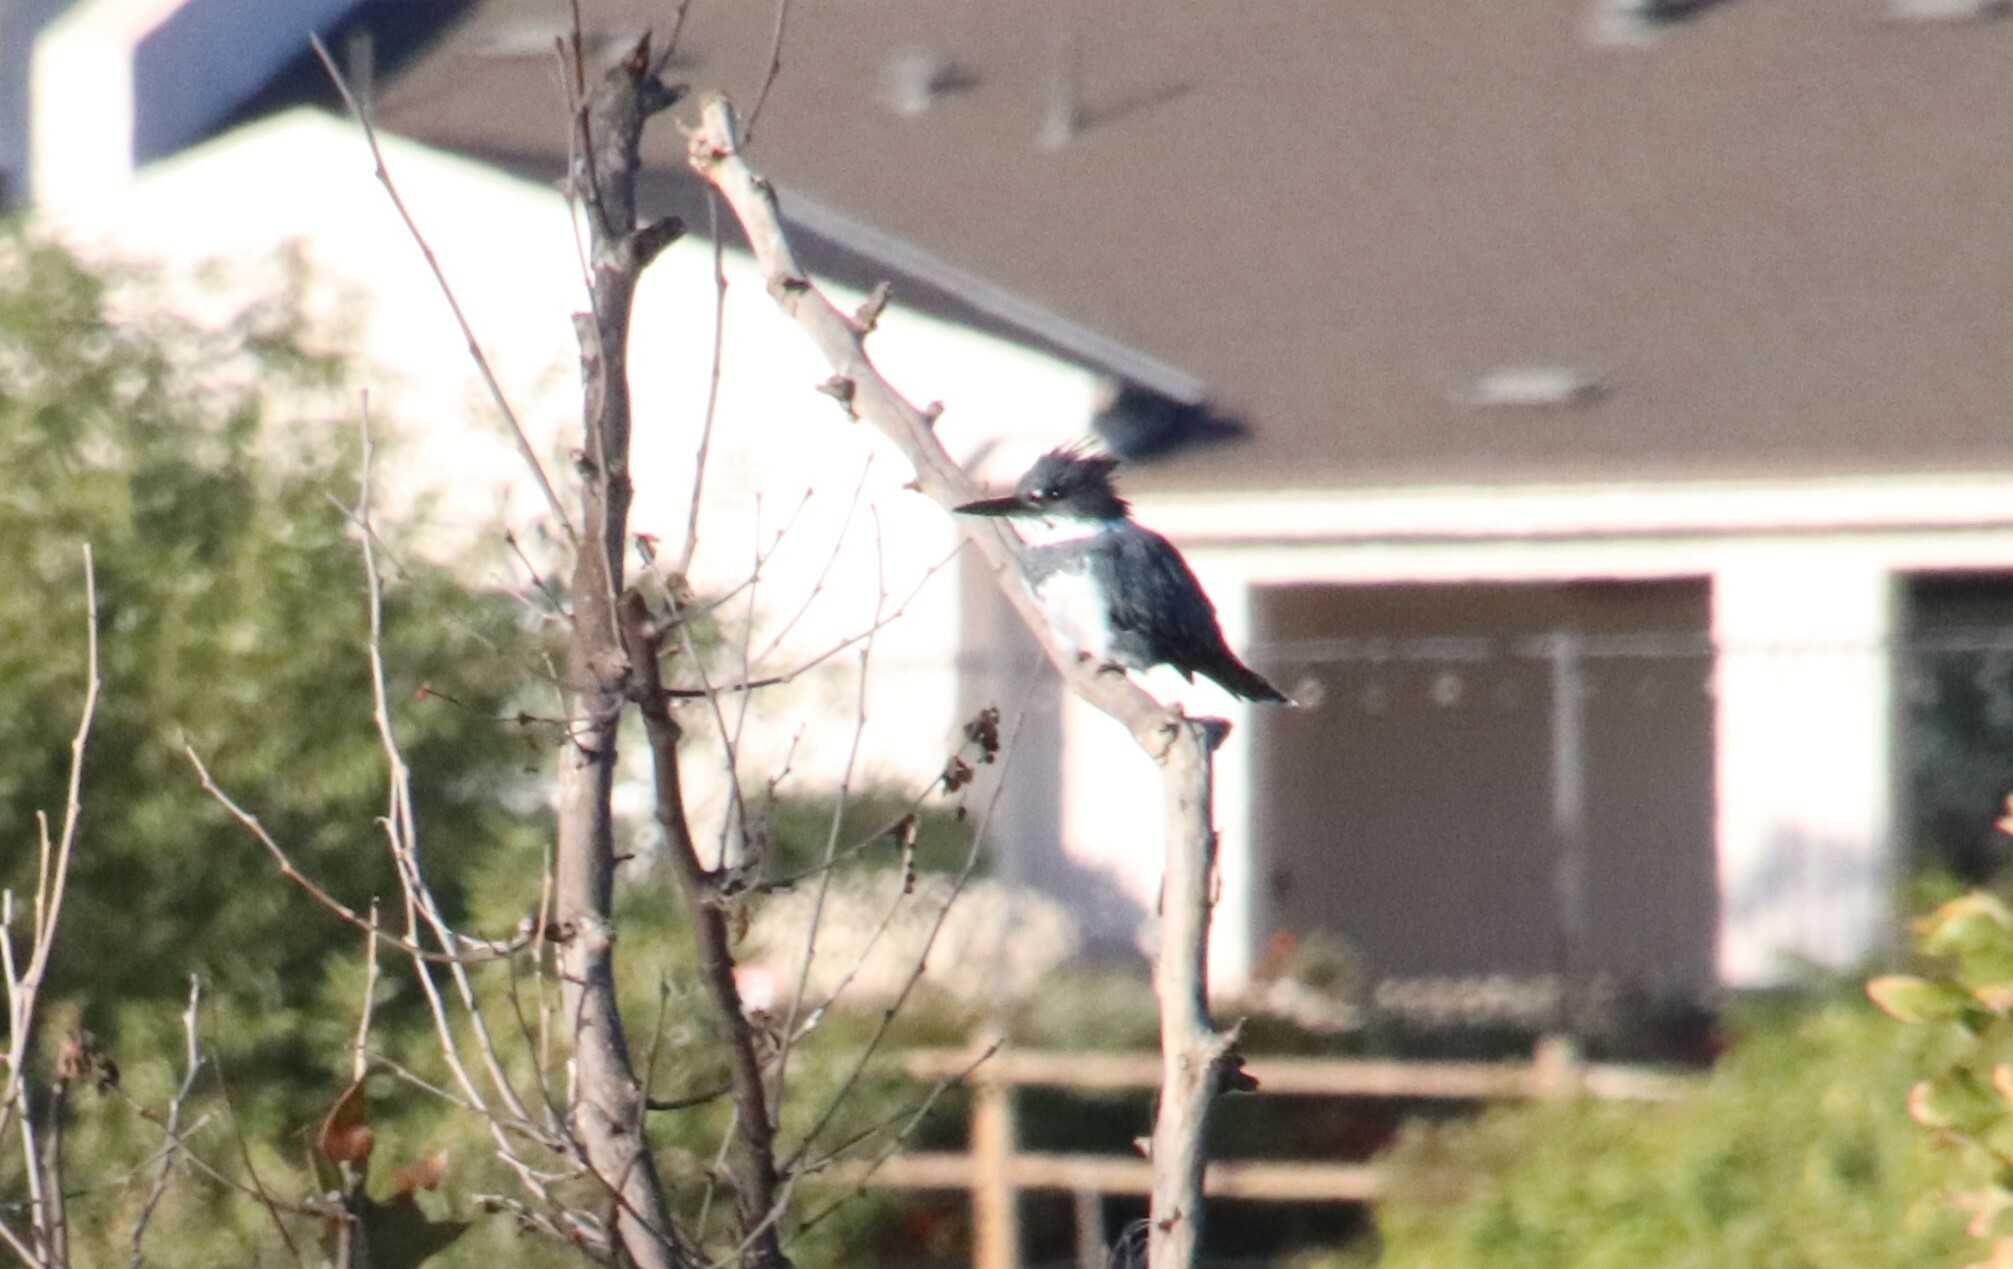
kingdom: Animalia
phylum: Chordata
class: Aves
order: Coraciiformes
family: Alcedinidae
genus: Megaceryle
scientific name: Megaceryle alcyon
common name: Belted kingfisher
